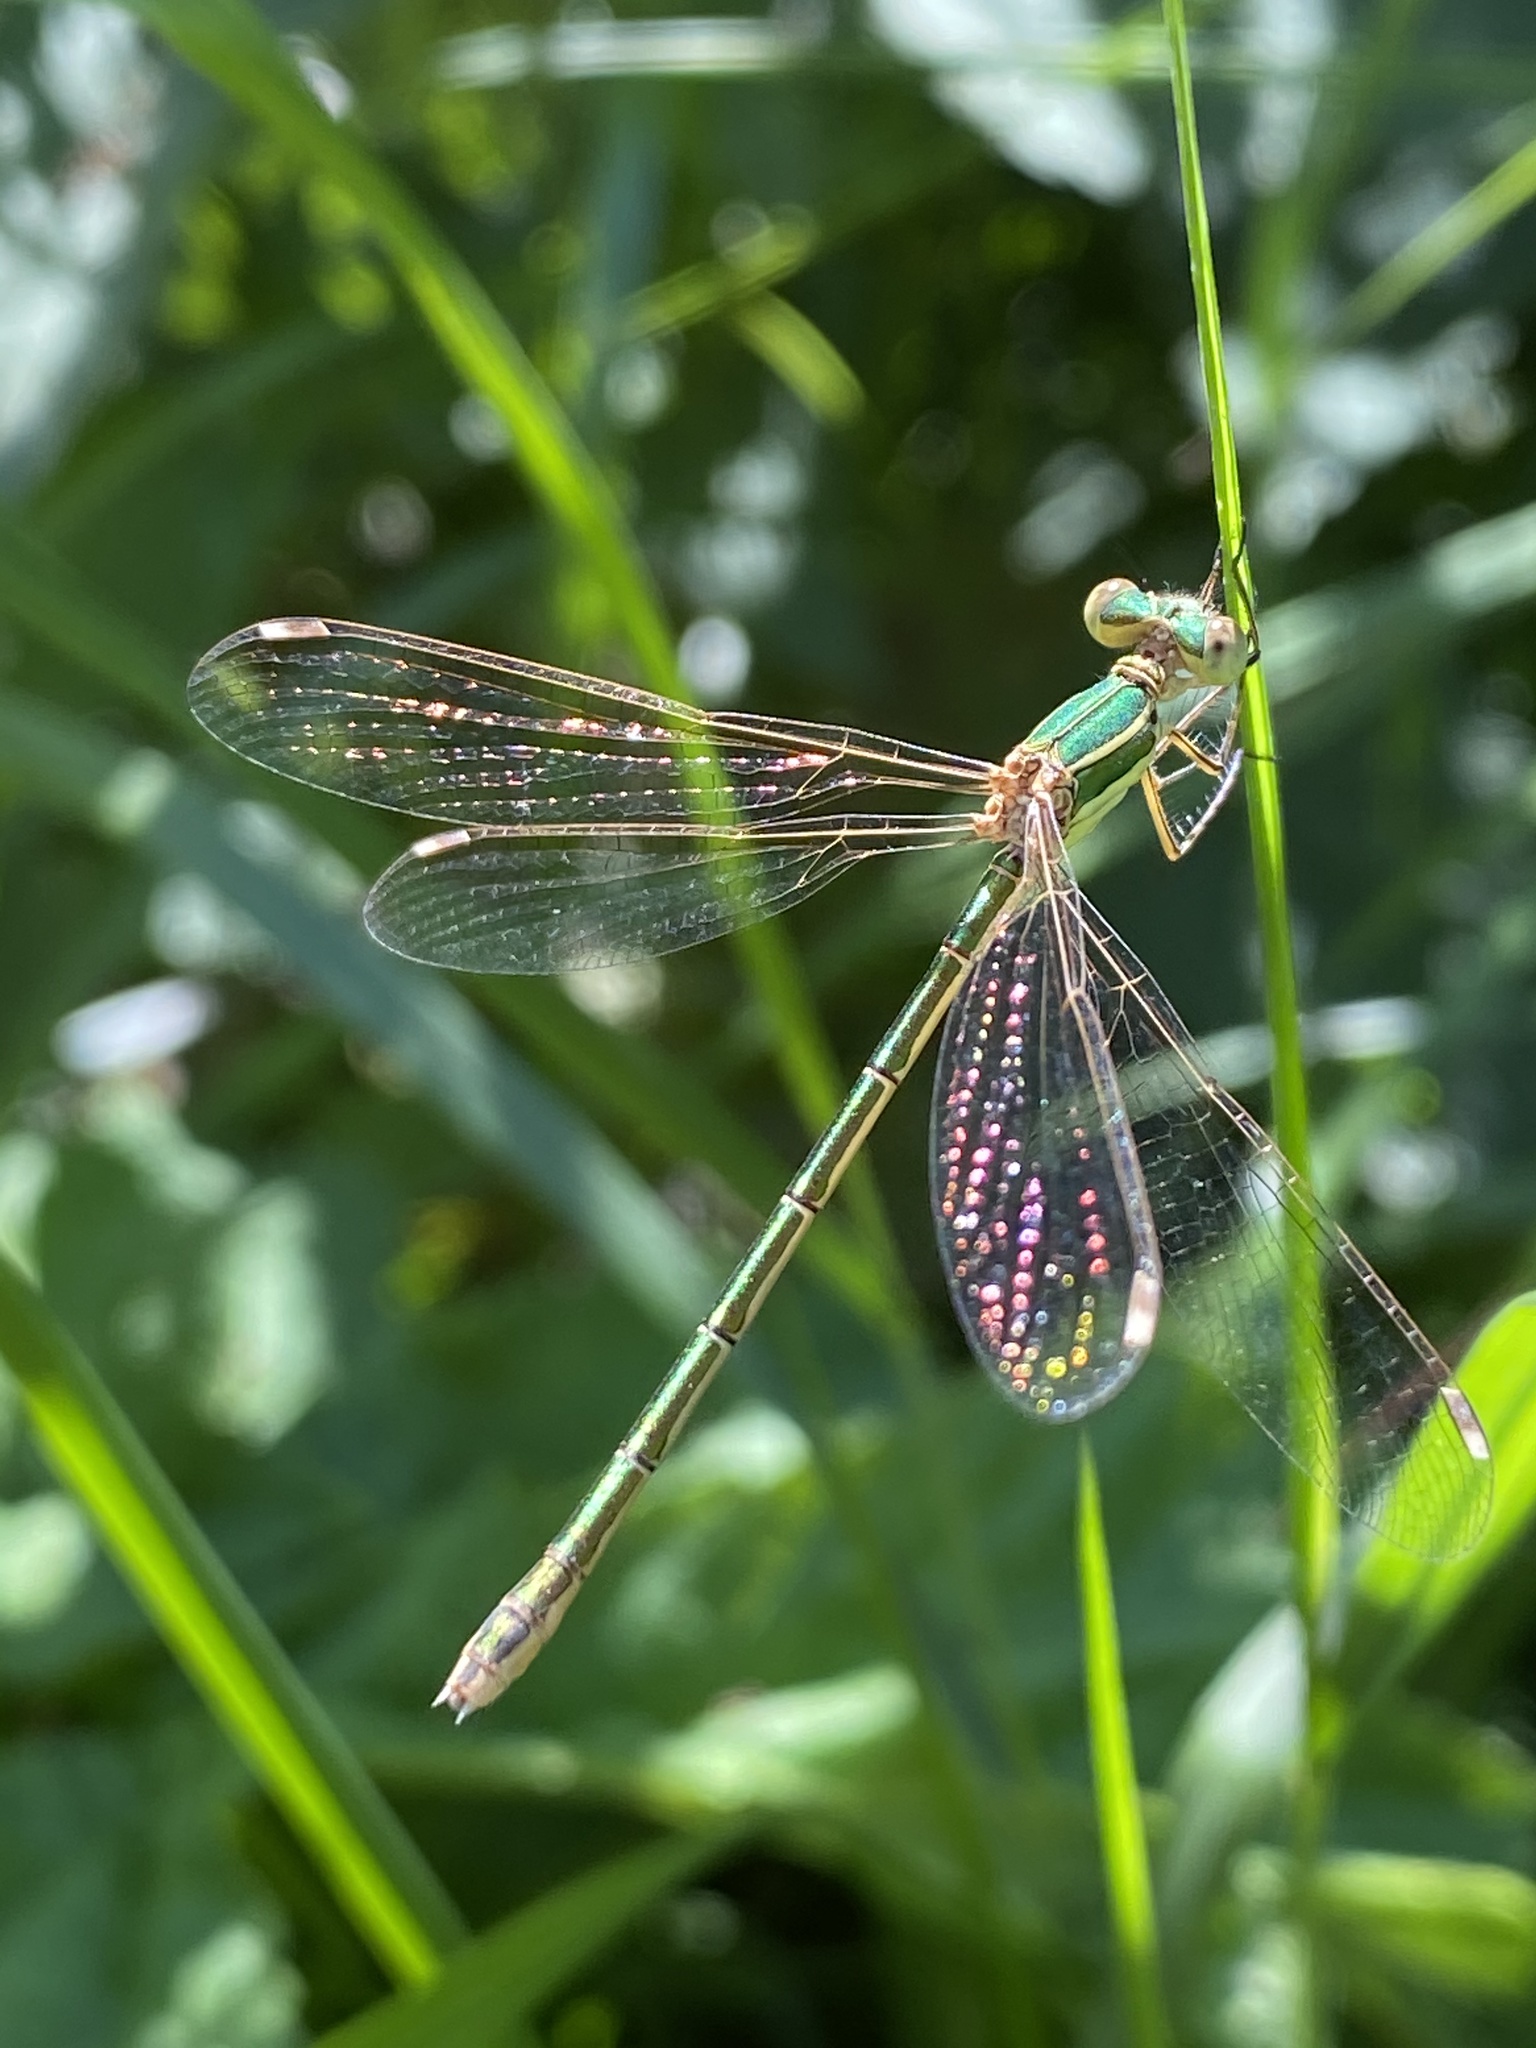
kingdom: Animalia
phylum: Arthropoda
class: Insecta
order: Odonata
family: Lestidae
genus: Lestes
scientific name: Lestes barbarus
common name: Migrant spreadwing
